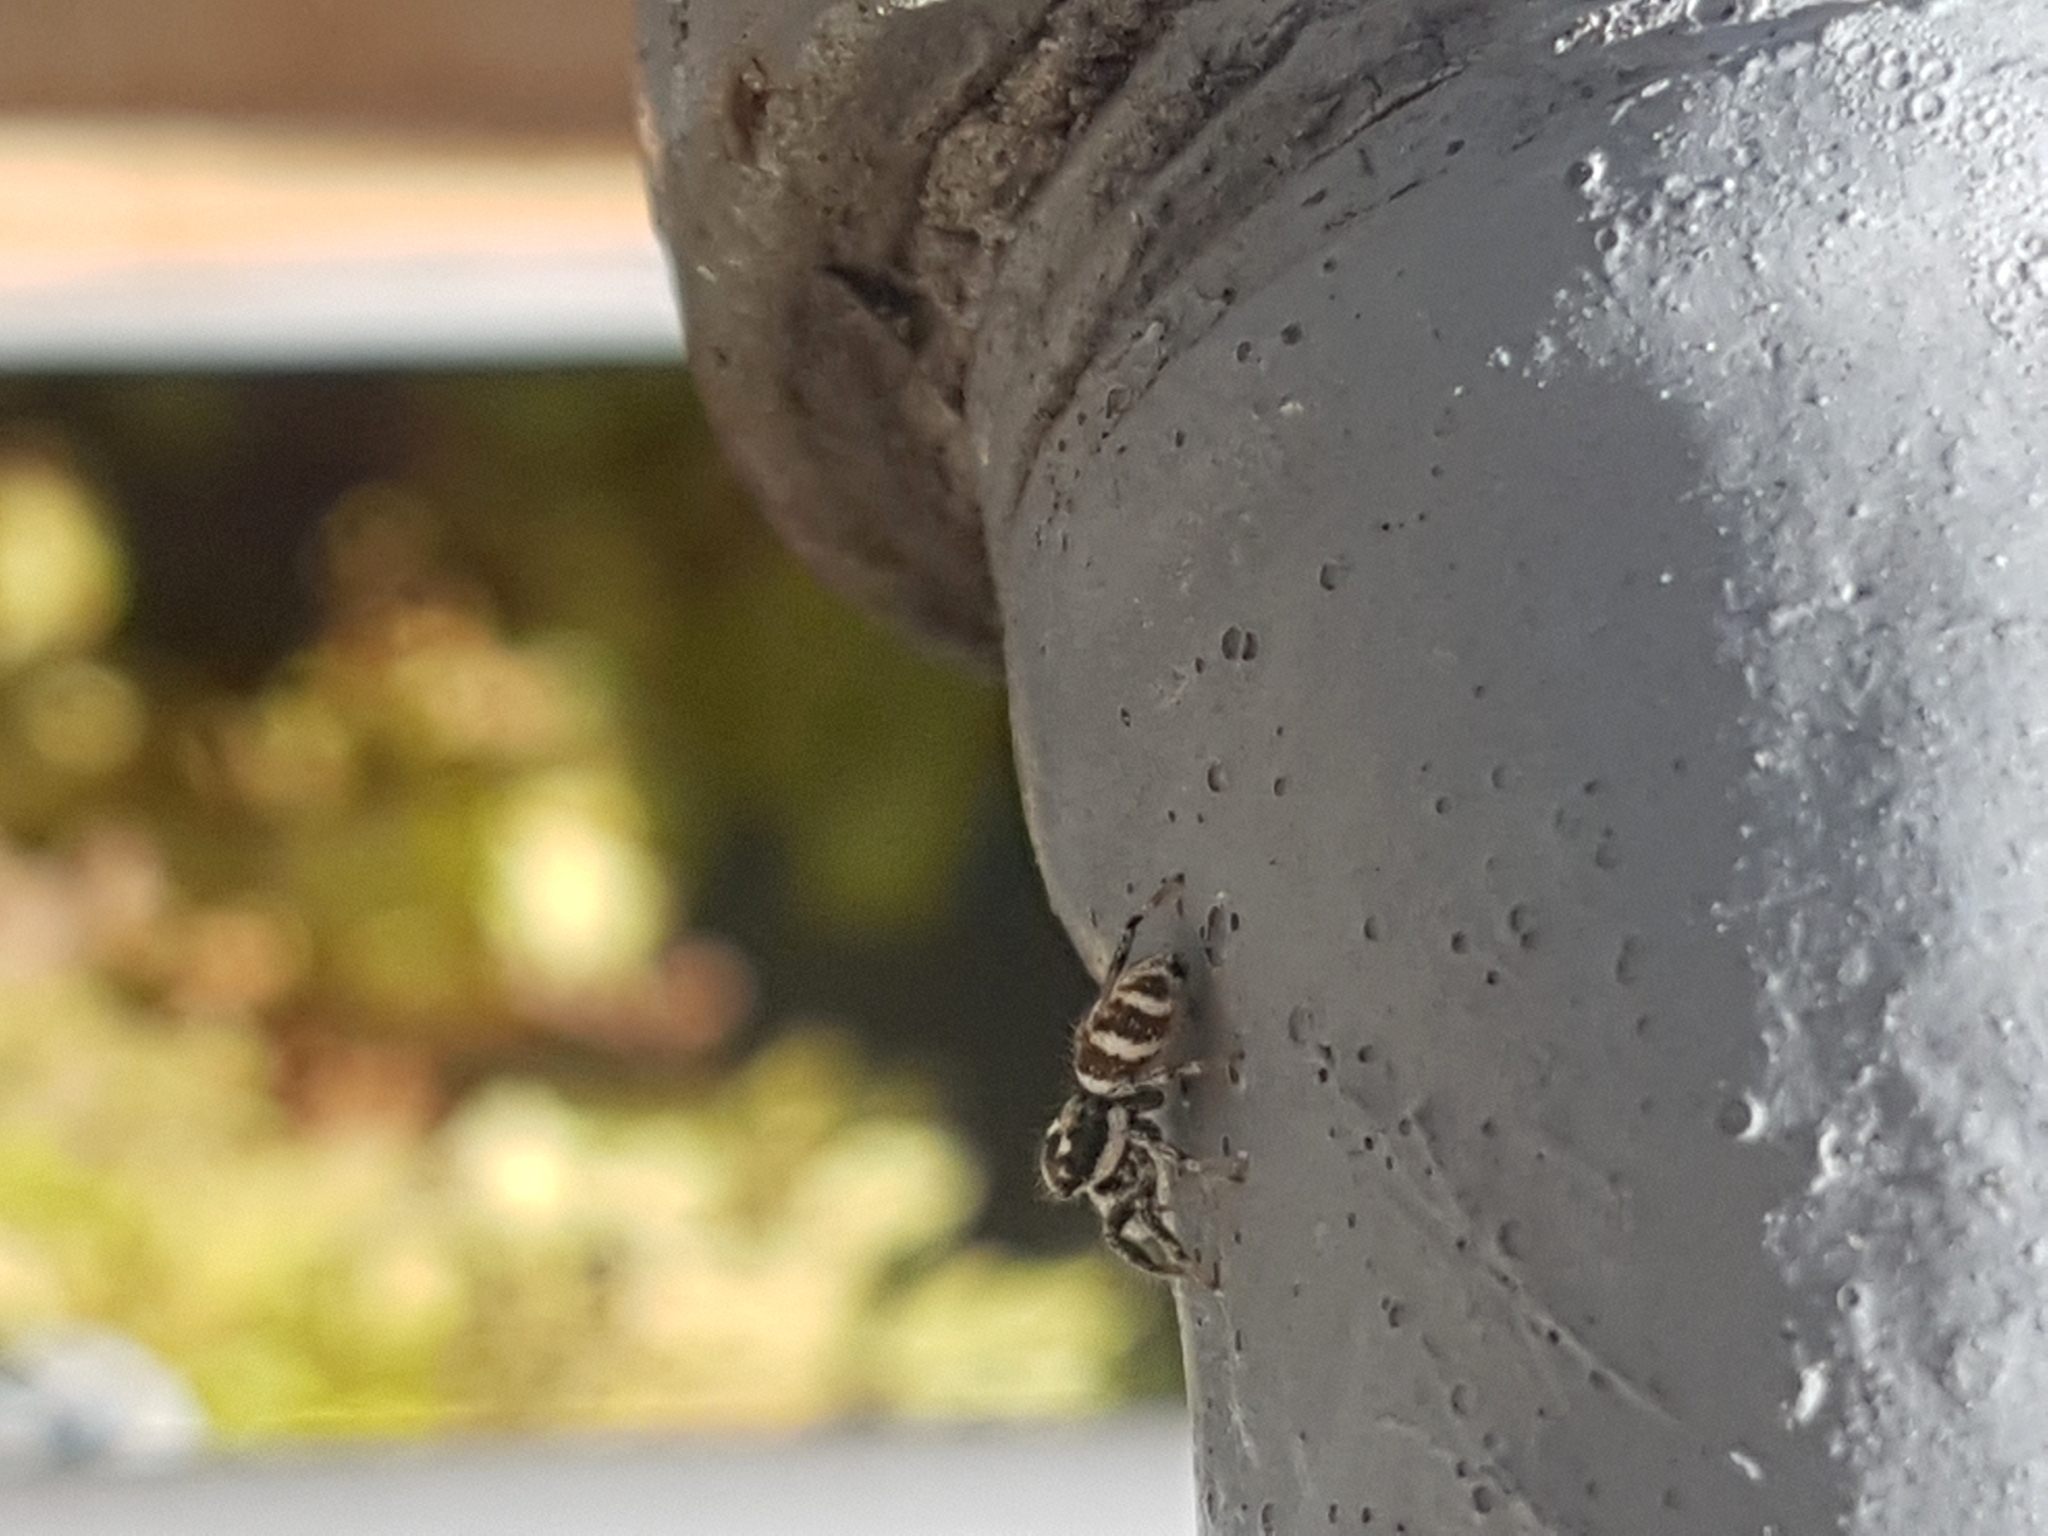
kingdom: Animalia
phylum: Arthropoda
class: Arachnida
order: Araneae
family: Salticidae
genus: Salticus
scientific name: Salticus scenicus
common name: Zebra jumper
